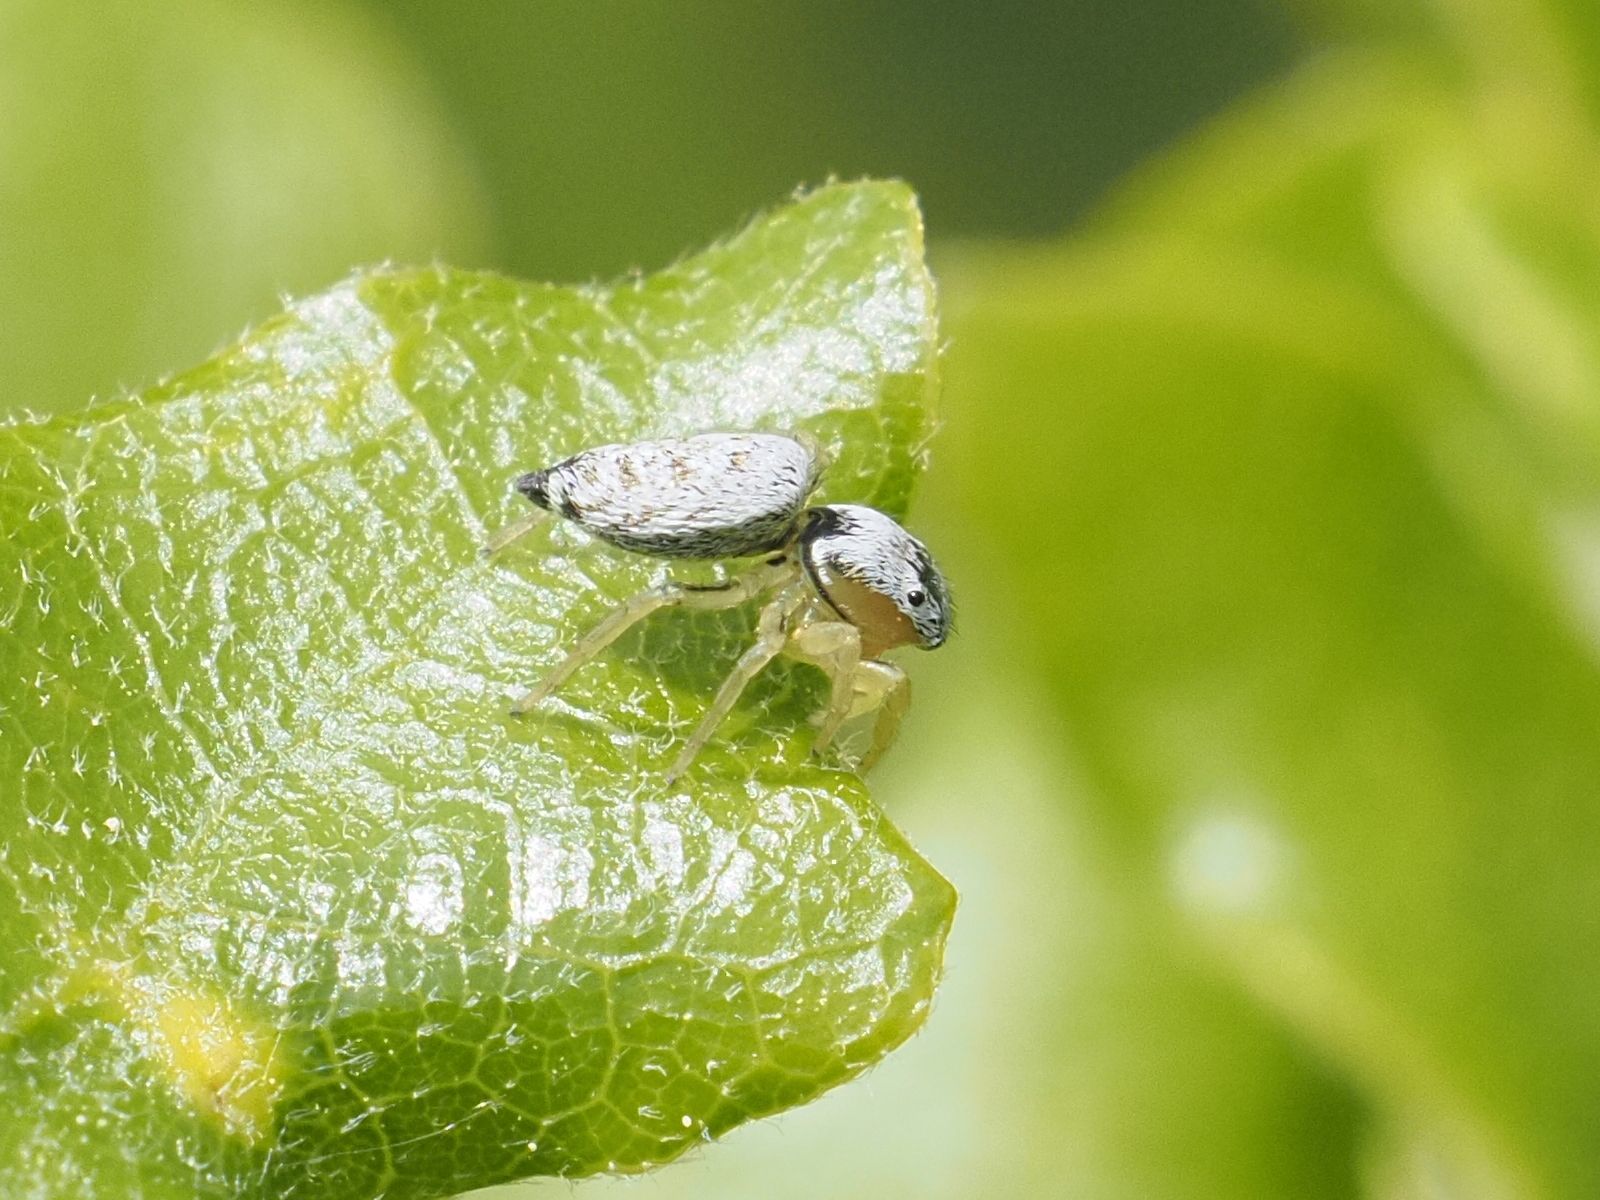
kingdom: Animalia
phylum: Arthropoda
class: Arachnida
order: Araneae
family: Salticidae
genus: Heliophanus
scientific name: Heliophanus simplex
